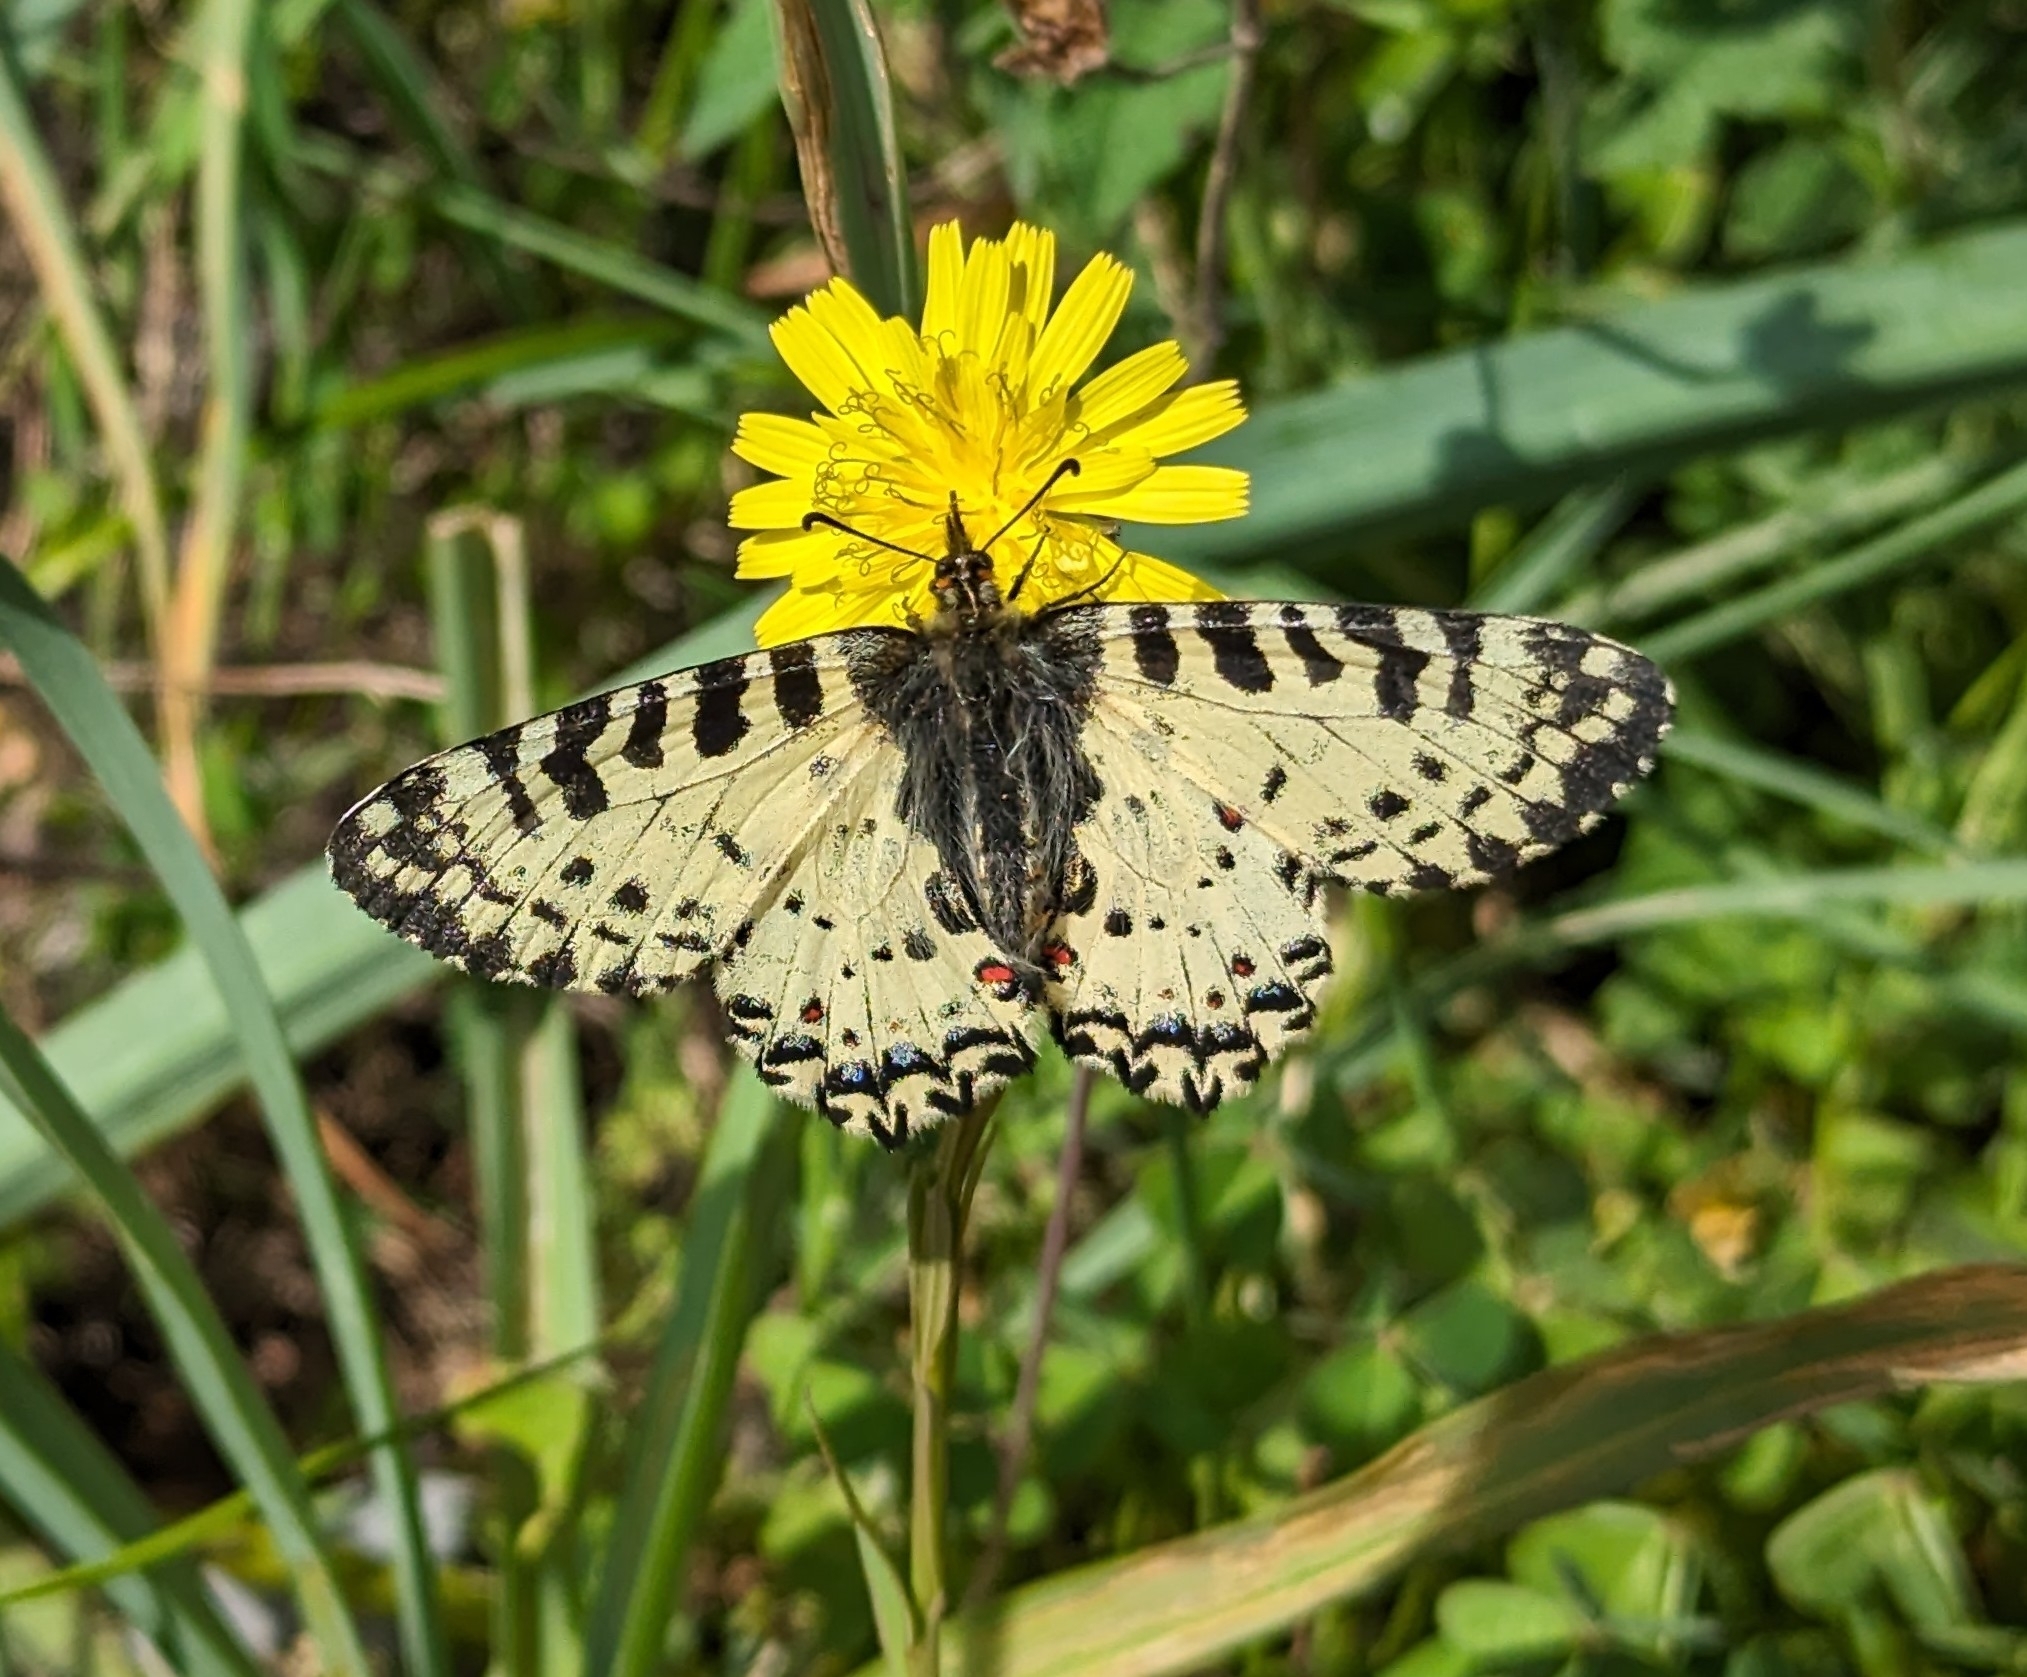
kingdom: Animalia
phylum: Arthropoda
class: Insecta
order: Lepidoptera
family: Papilionidae
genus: Zerynthia
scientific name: Zerynthia cretica
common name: Cretan festoon
